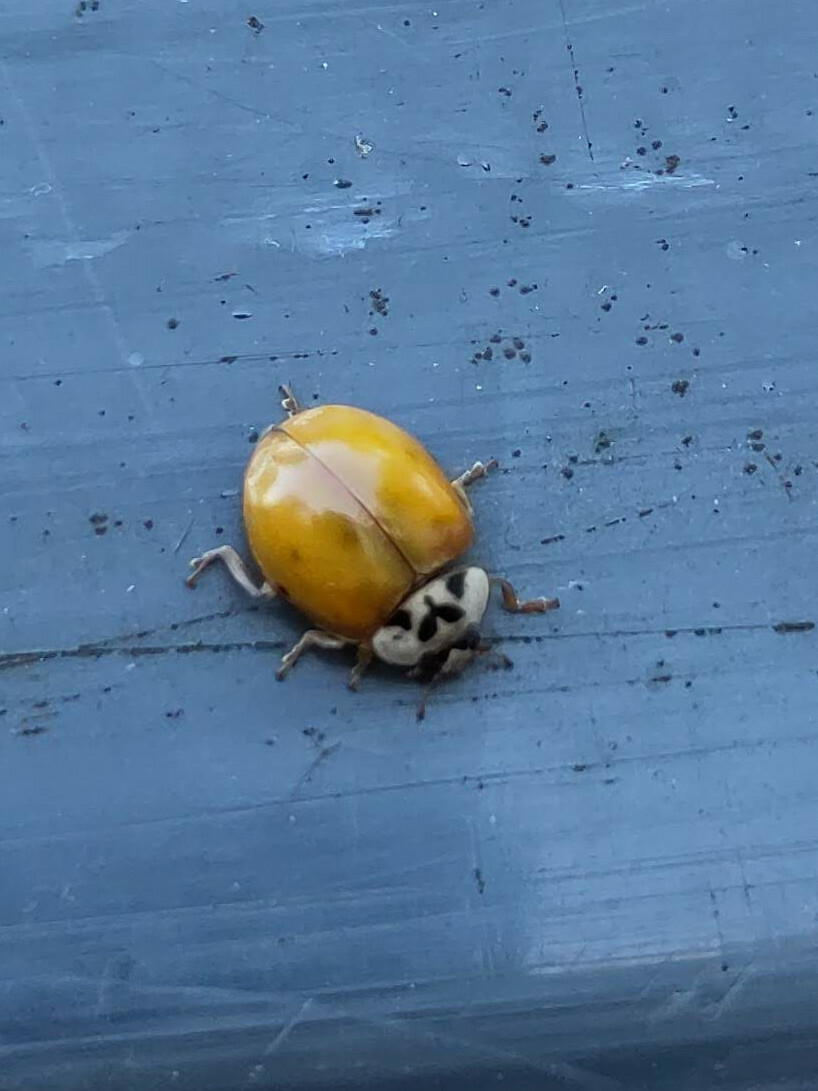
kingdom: Animalia
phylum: Arthropoda
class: Insecta
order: Coleoptera
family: Coccinellidae
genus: Harmonia
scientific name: Harmonia axyridis
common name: Harlequin ladybird
